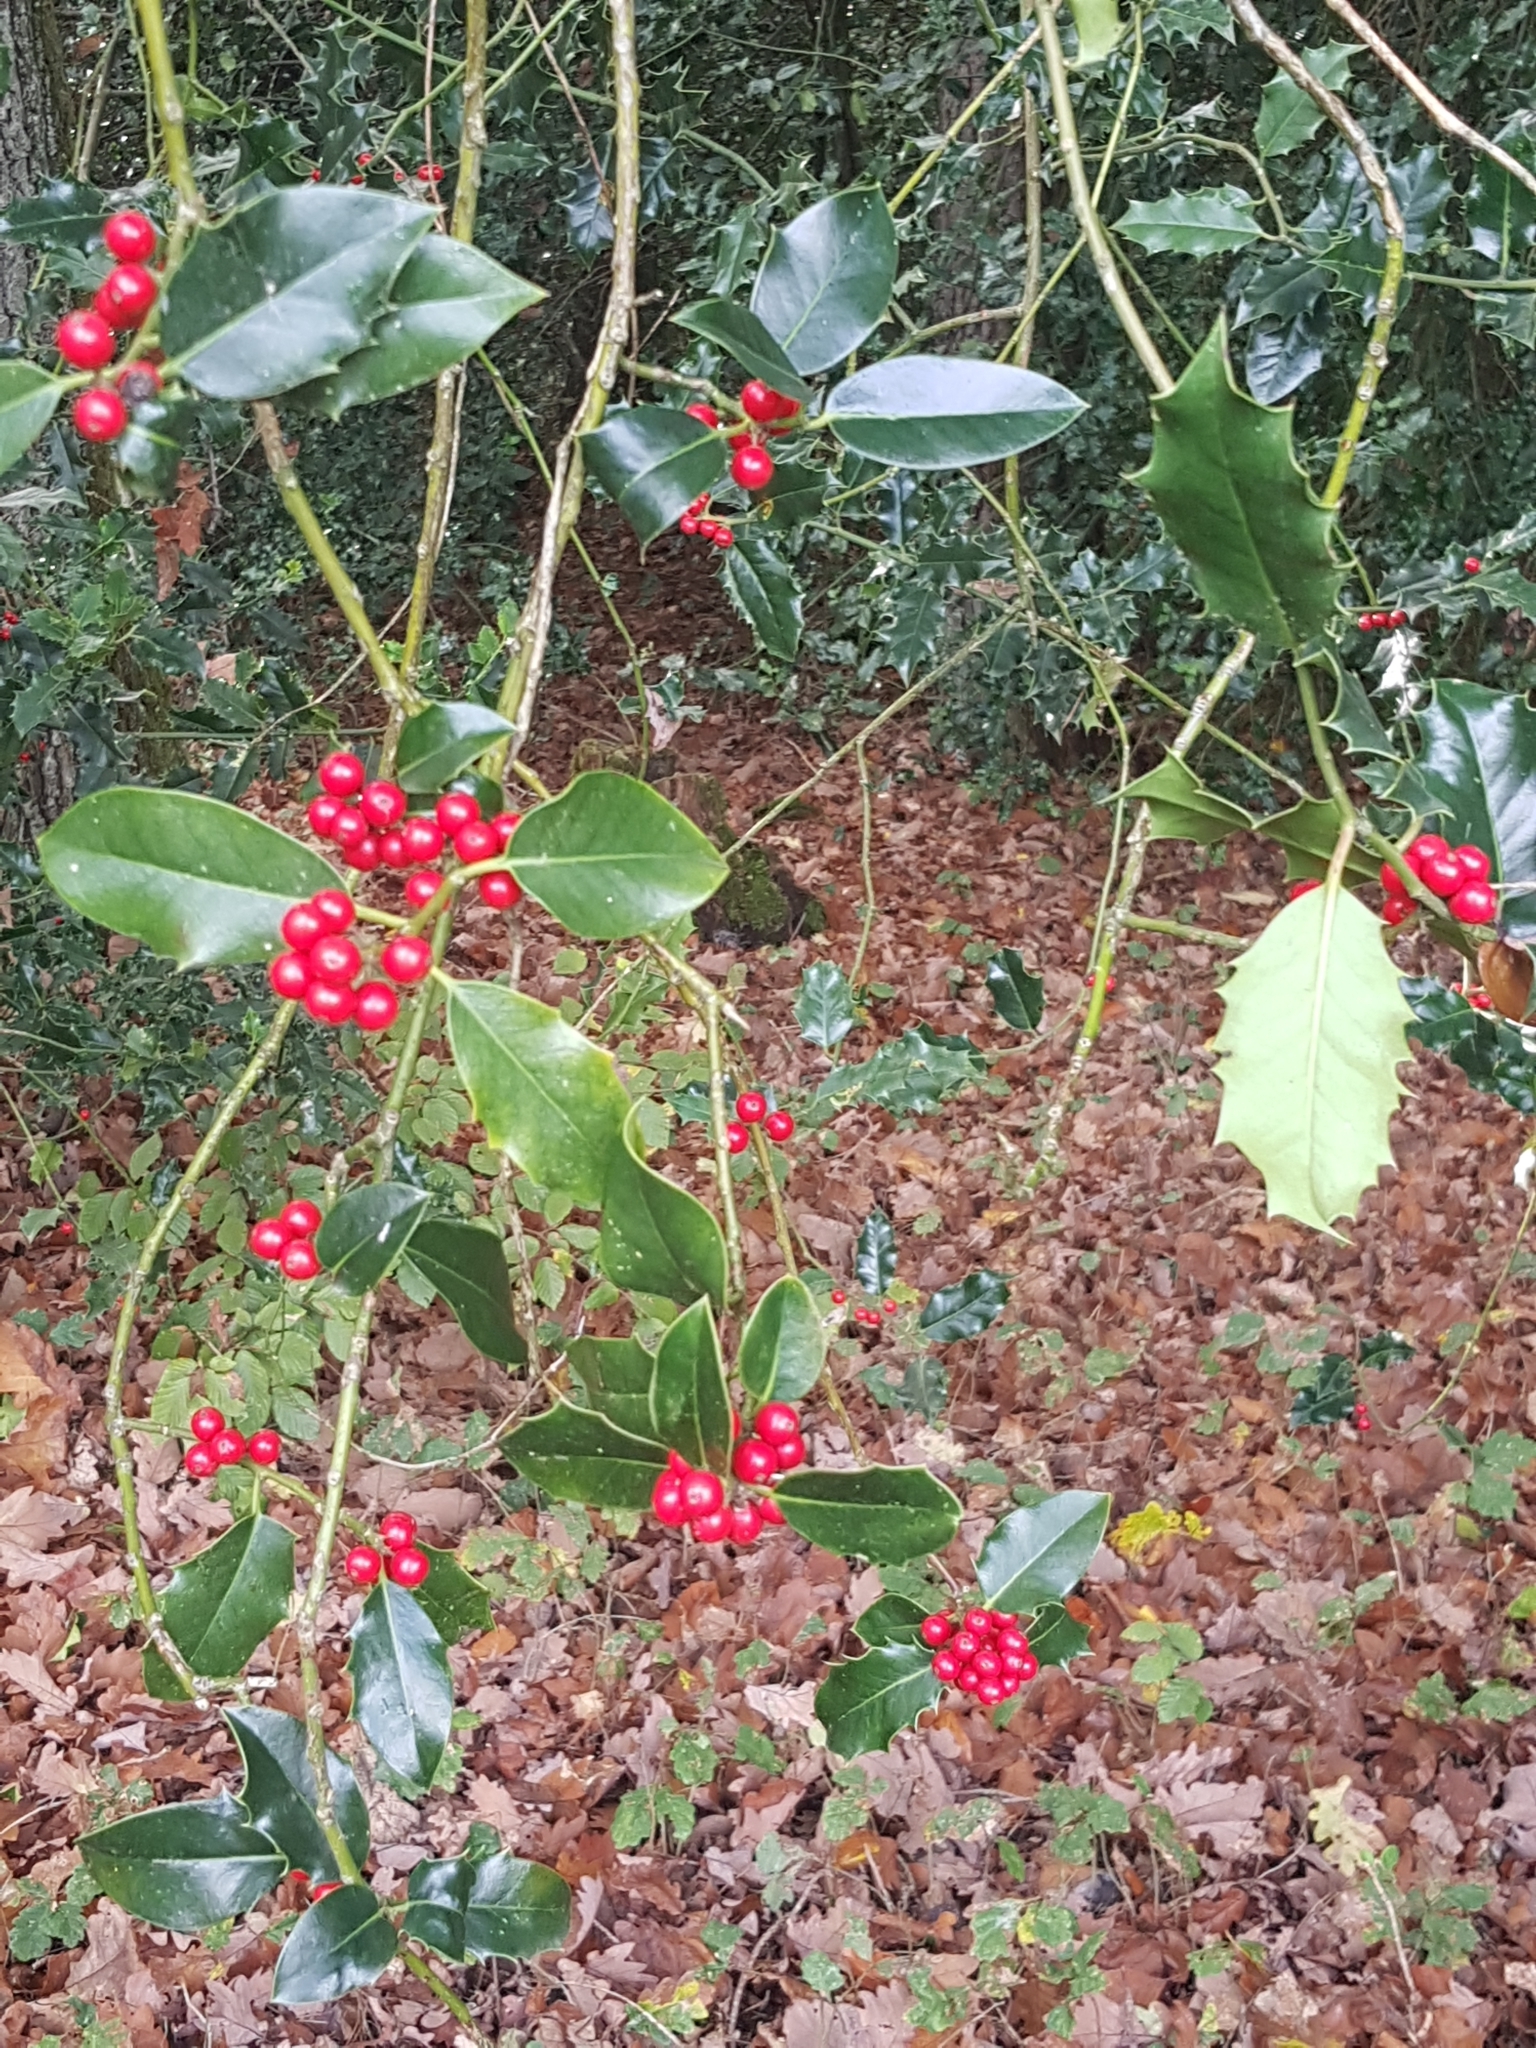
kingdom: Plantae
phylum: Tracheophyta
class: Magnoliopsida
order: Aquifoliales
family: Aquifoliaceae
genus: Ilex
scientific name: Ilex aquifolium
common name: English holly
